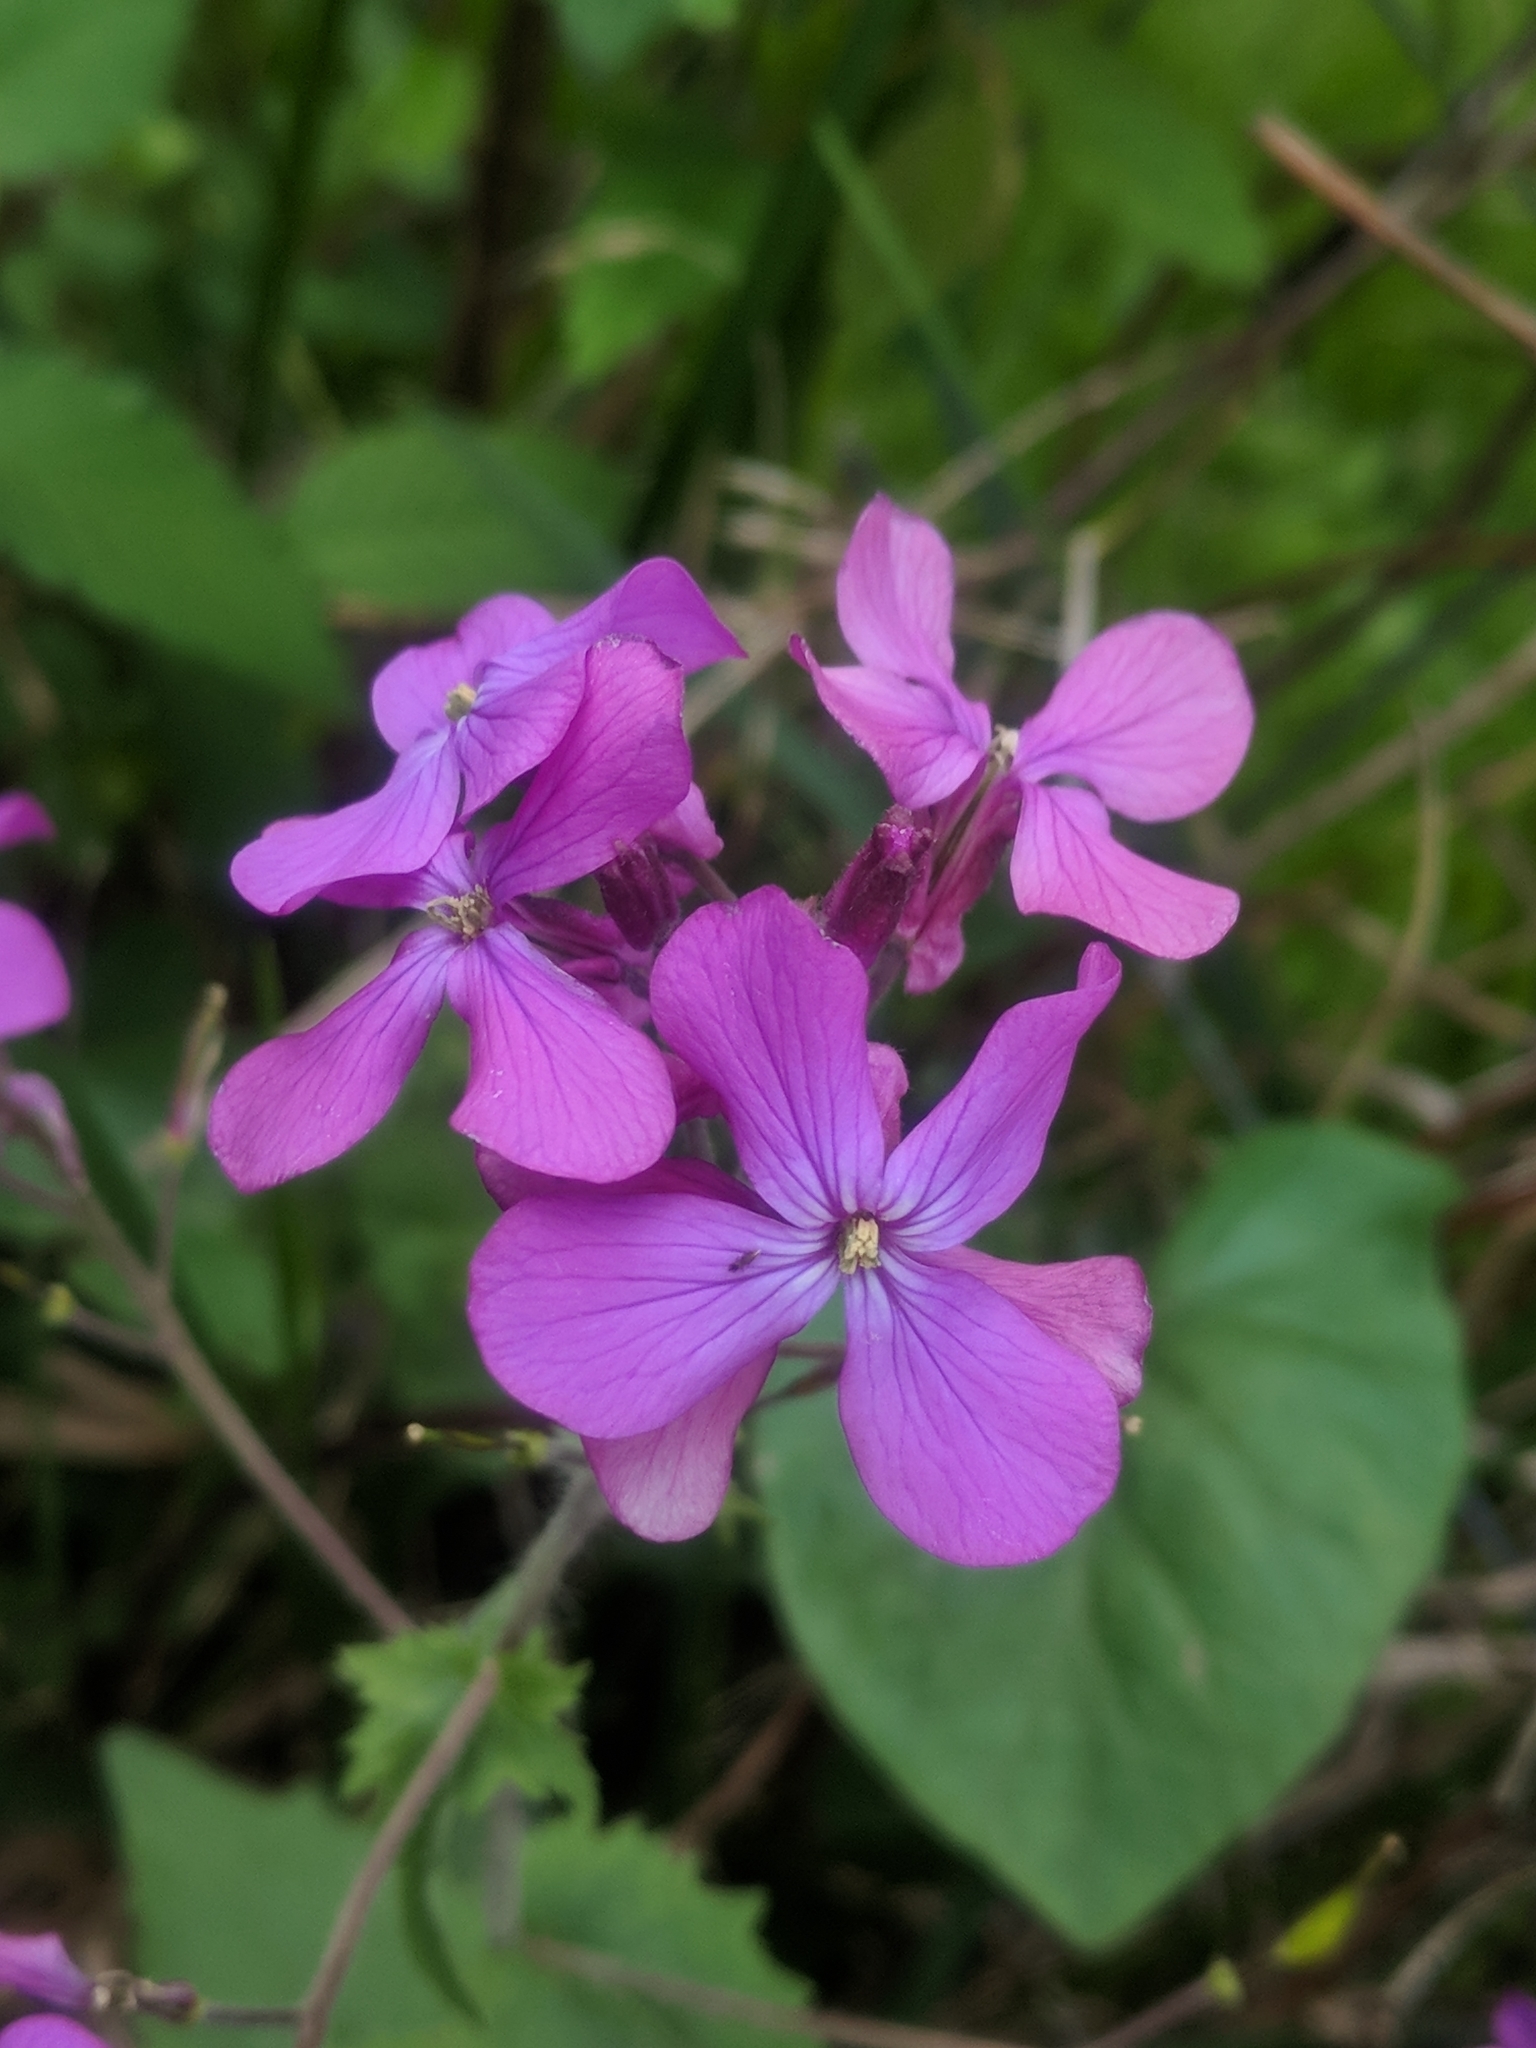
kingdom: Plantae
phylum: Tracheophyta
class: Magnoliopsida
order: Brassicales
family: Brassicaceae
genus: Lunaria
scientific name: Lunaria annua
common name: Honesty
